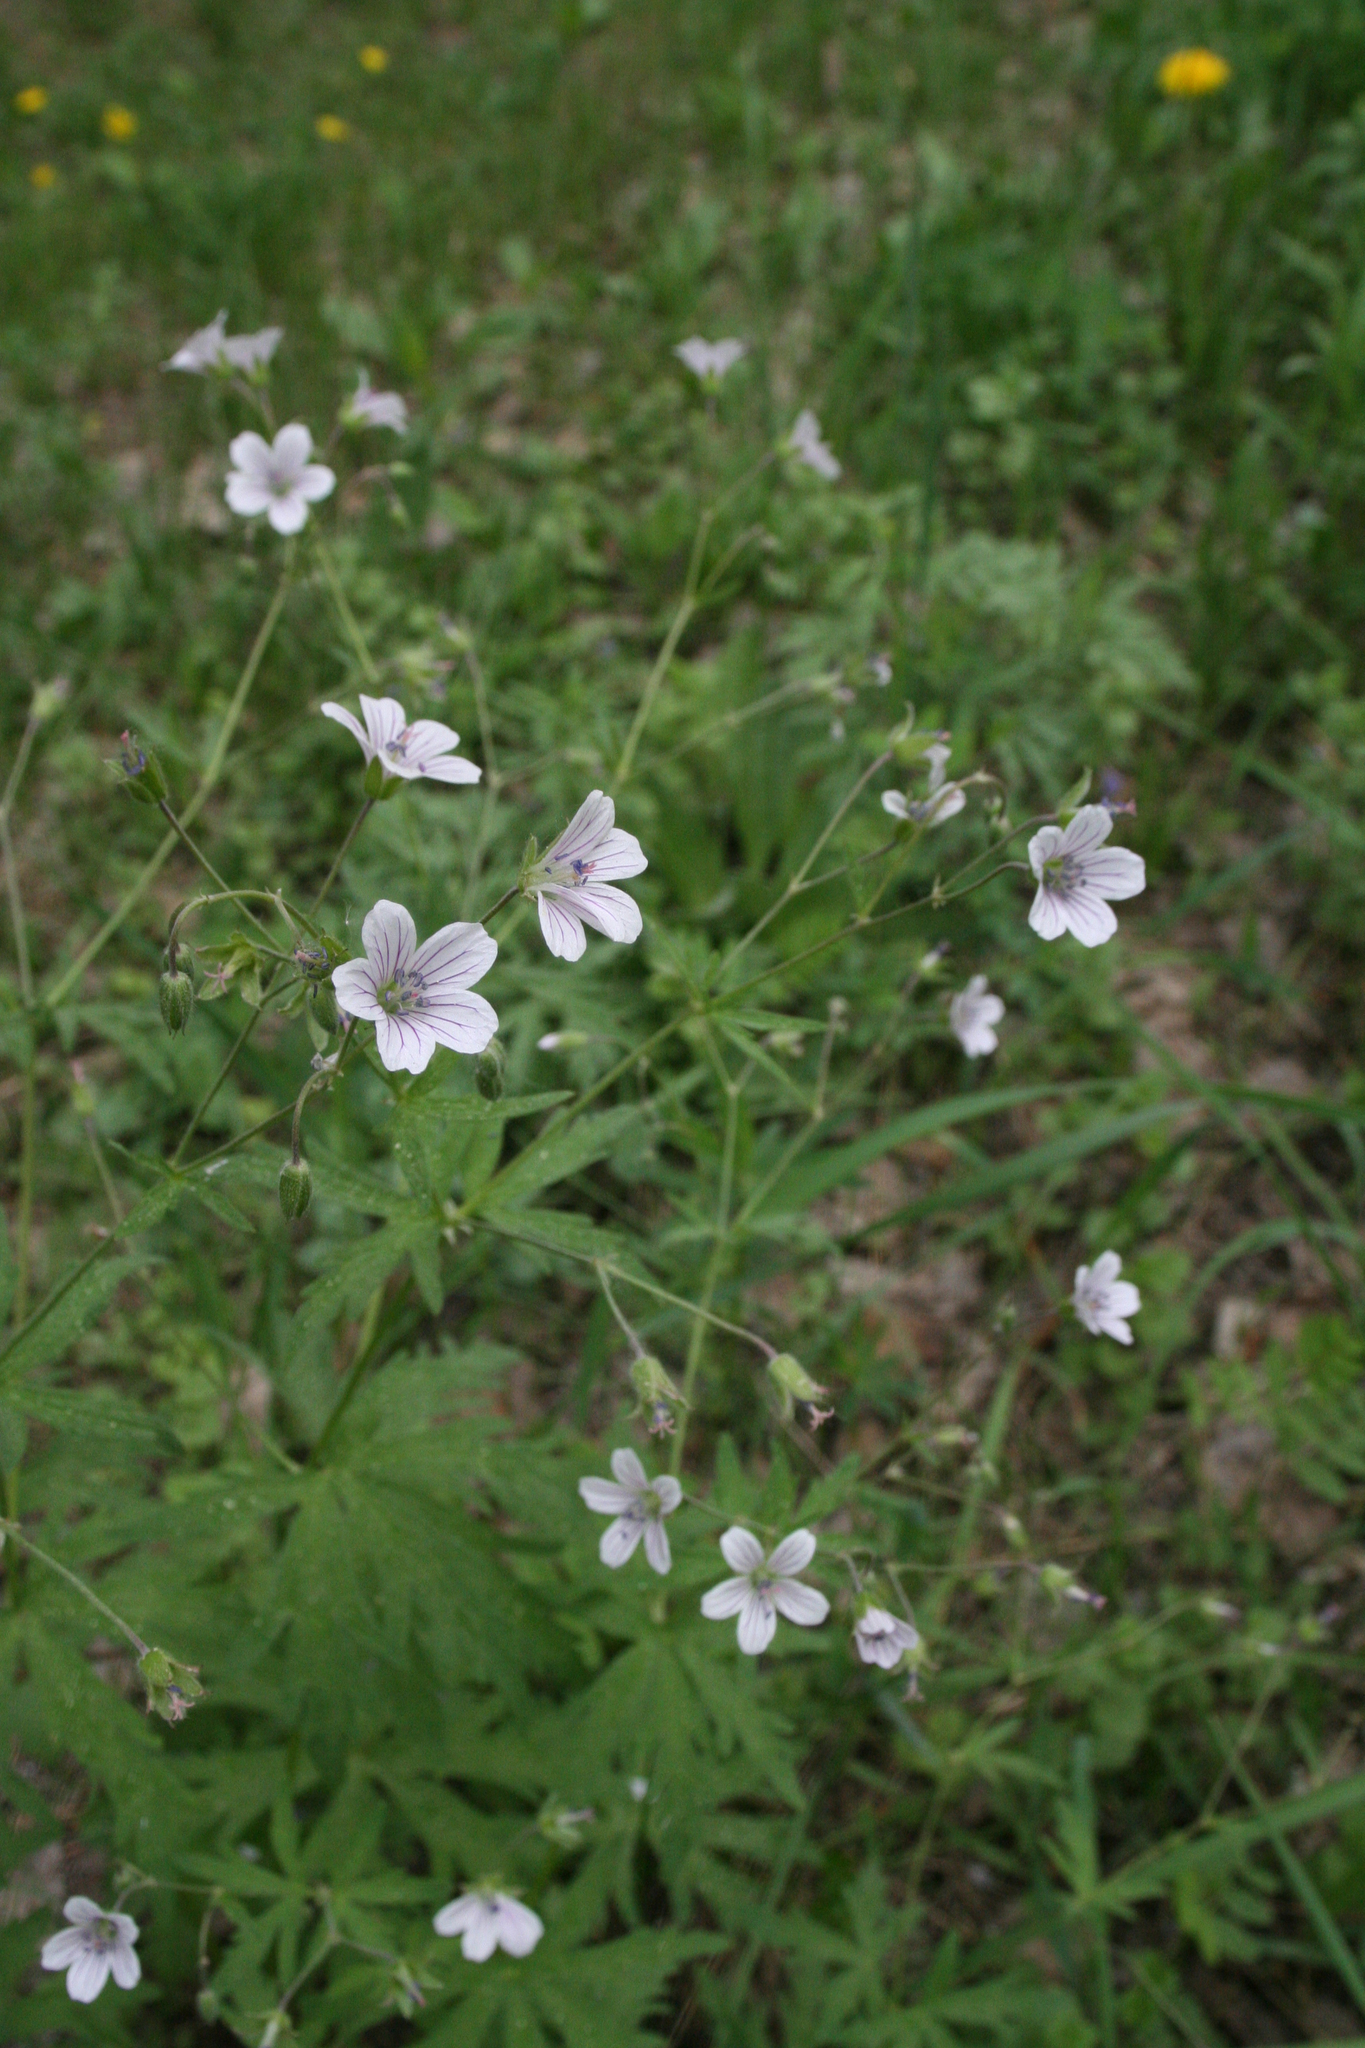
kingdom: Plantae
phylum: Tracheophyta
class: Magnoliopsida
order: Geraniales
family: Geraniaceae
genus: Geranium
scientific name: Geranium pseudosibiricum
